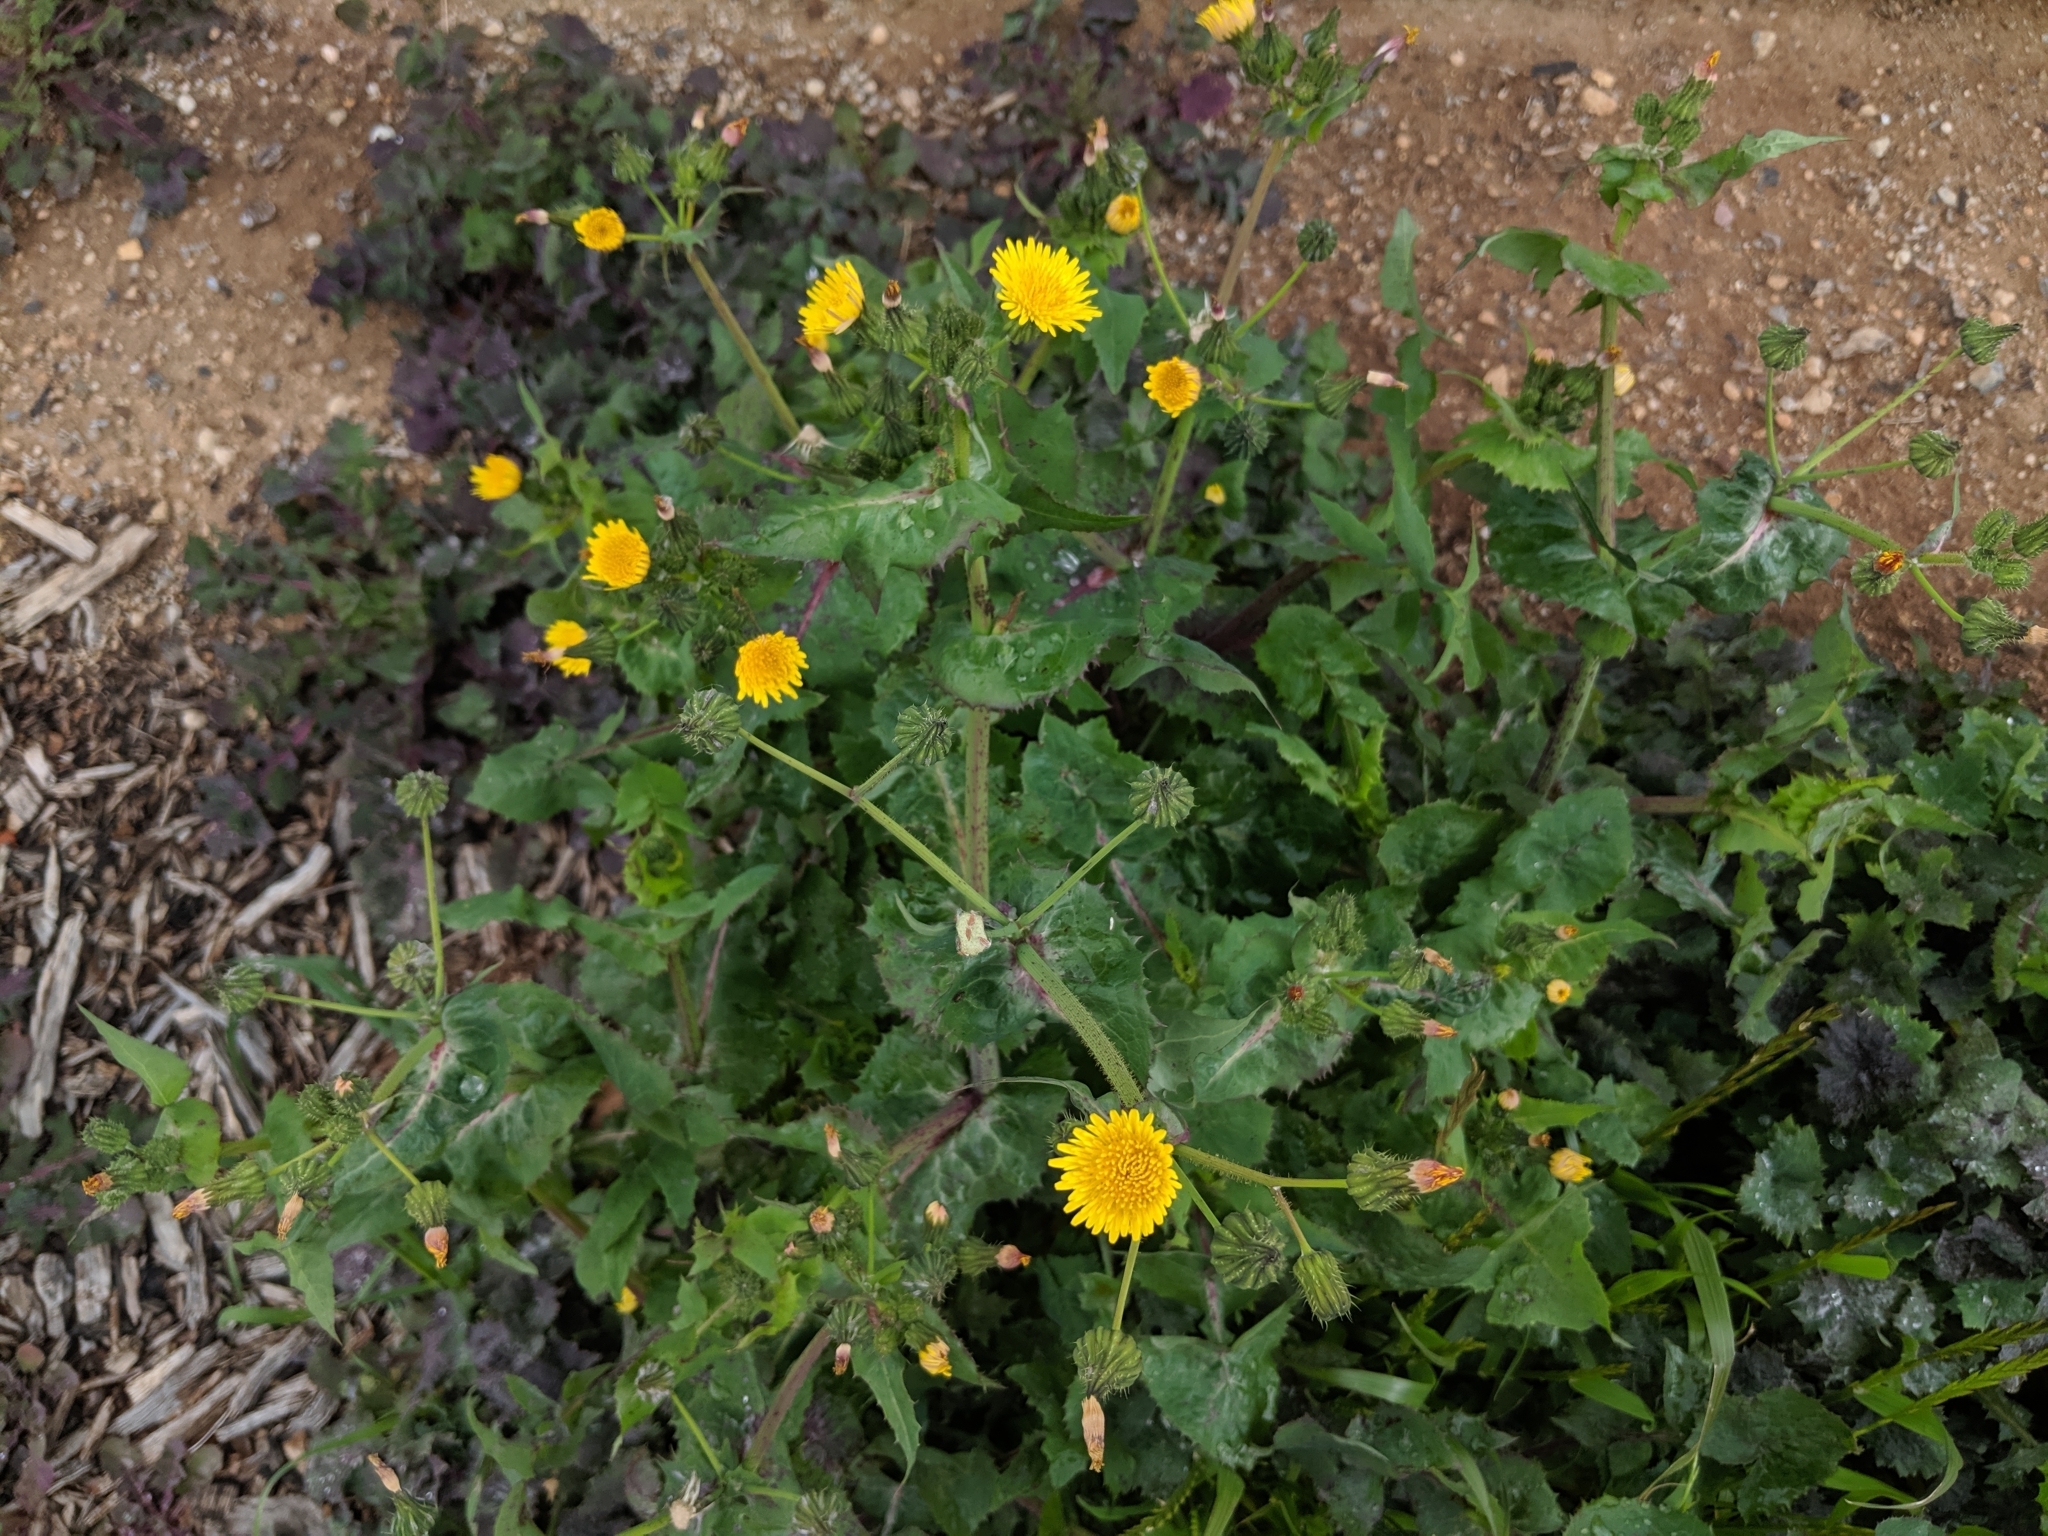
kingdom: Plantae
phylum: Tracheophyta
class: Magnoliopsida
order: Asterales
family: Asteraceae
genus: Sonchus
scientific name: Sonchus oleraceus
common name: Common sowthistle
